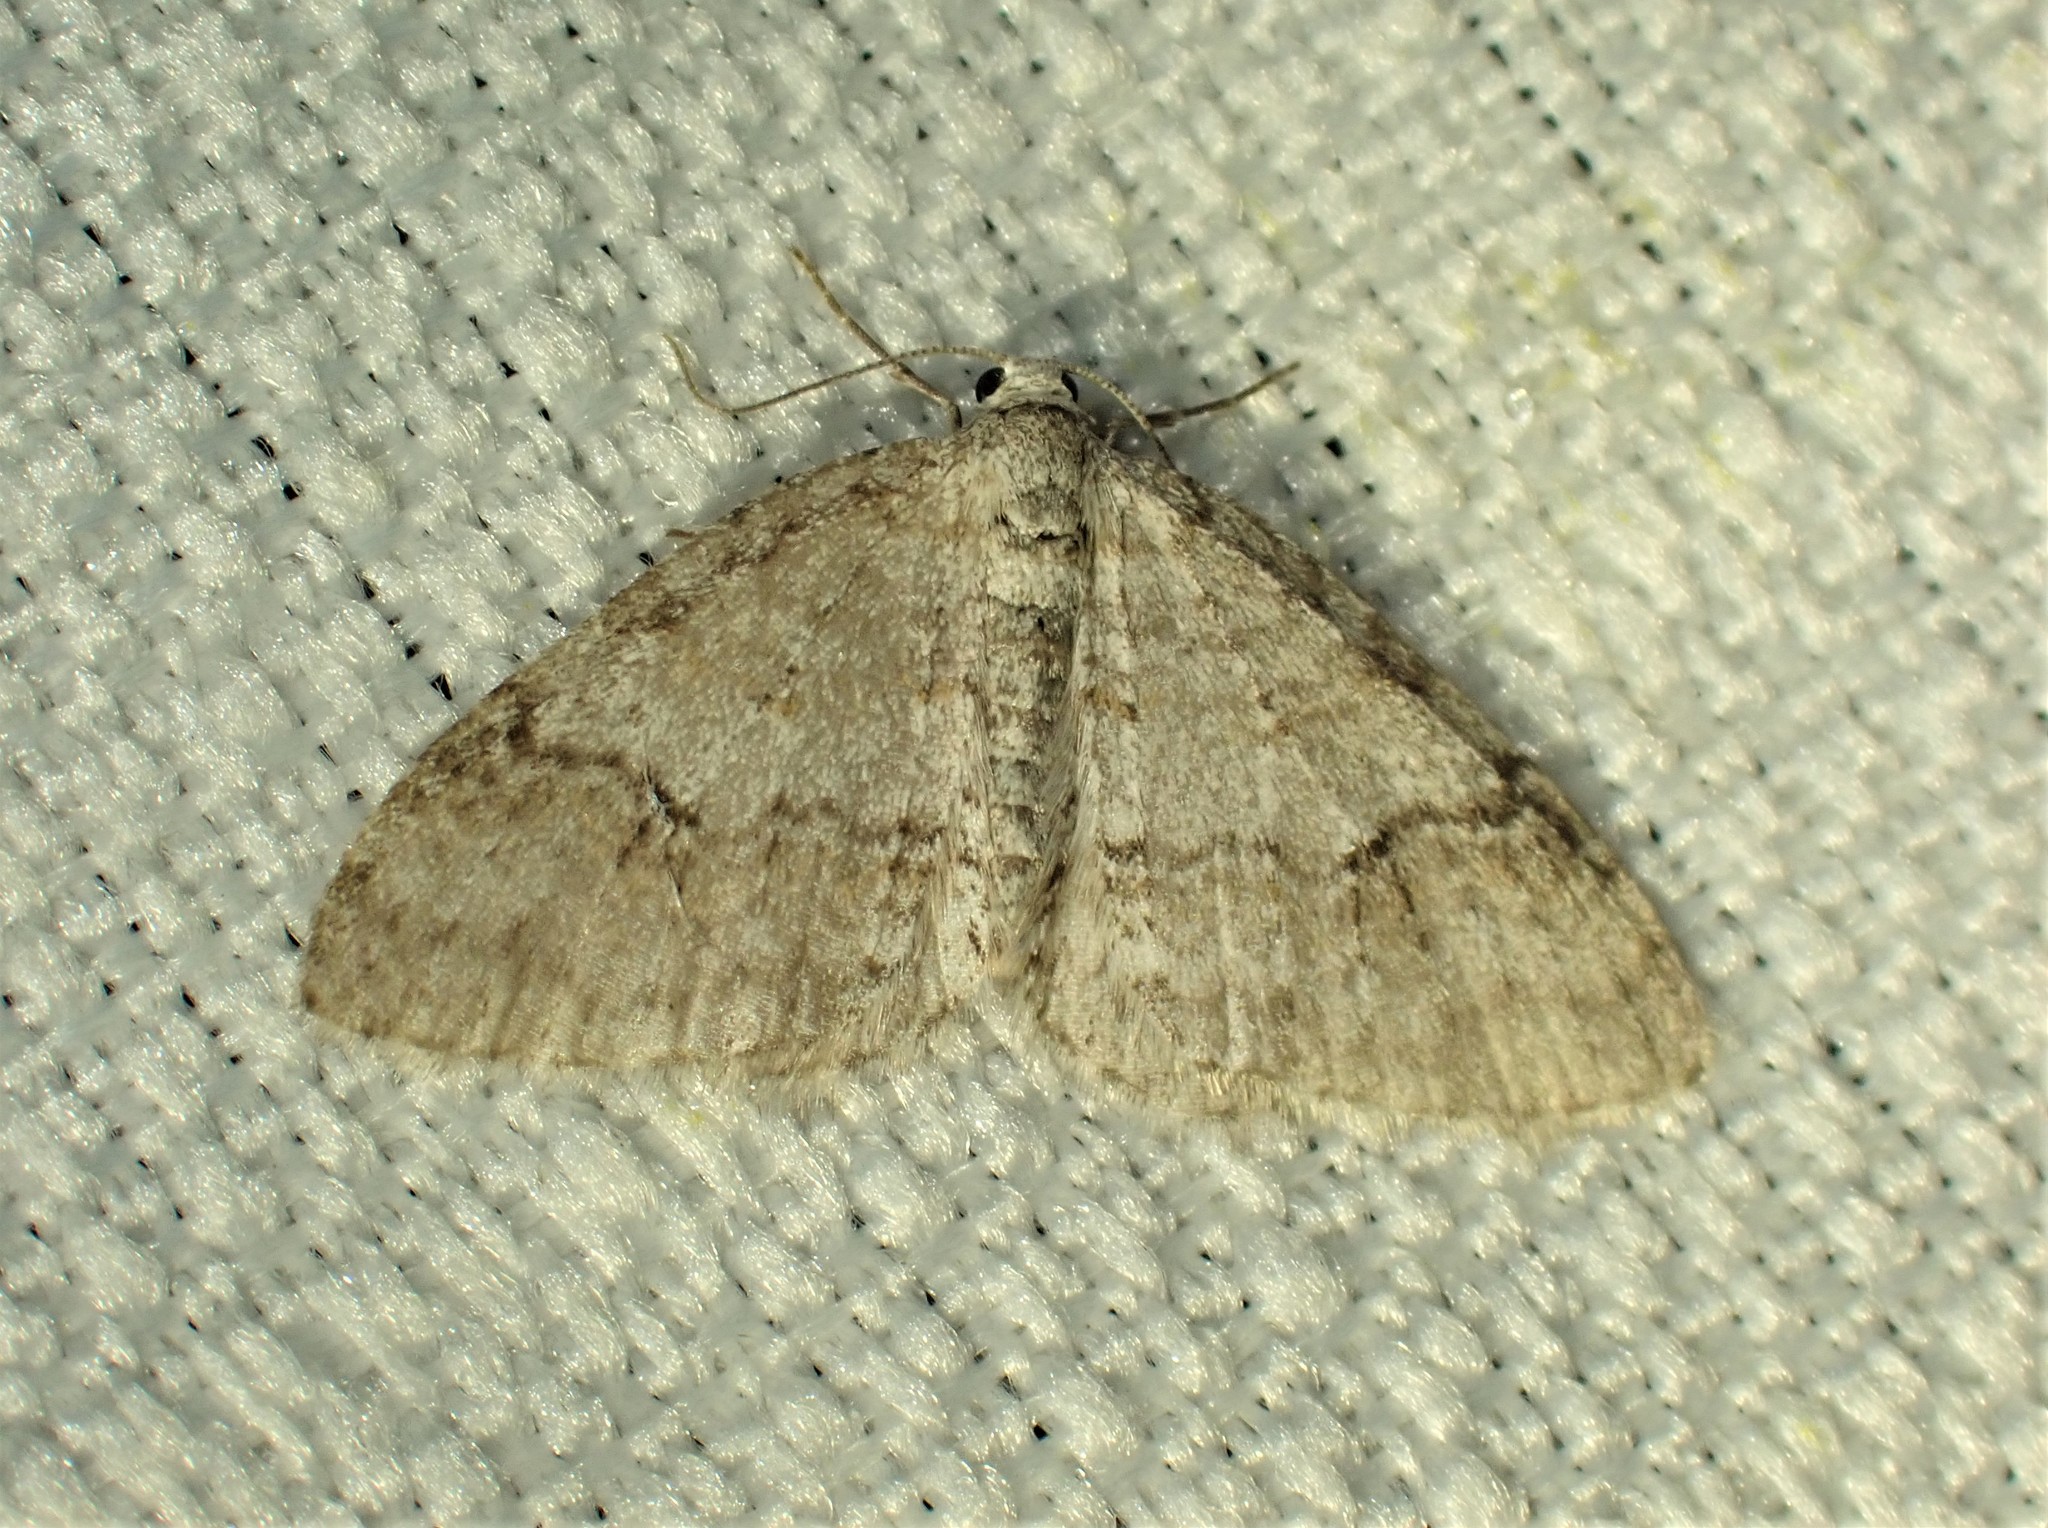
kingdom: Animalia
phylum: Arthropoda
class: Insecta
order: Lepidoptera
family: Geometridae
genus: Venusia
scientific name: Venusia comptaria
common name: Brown-shaded carpet
